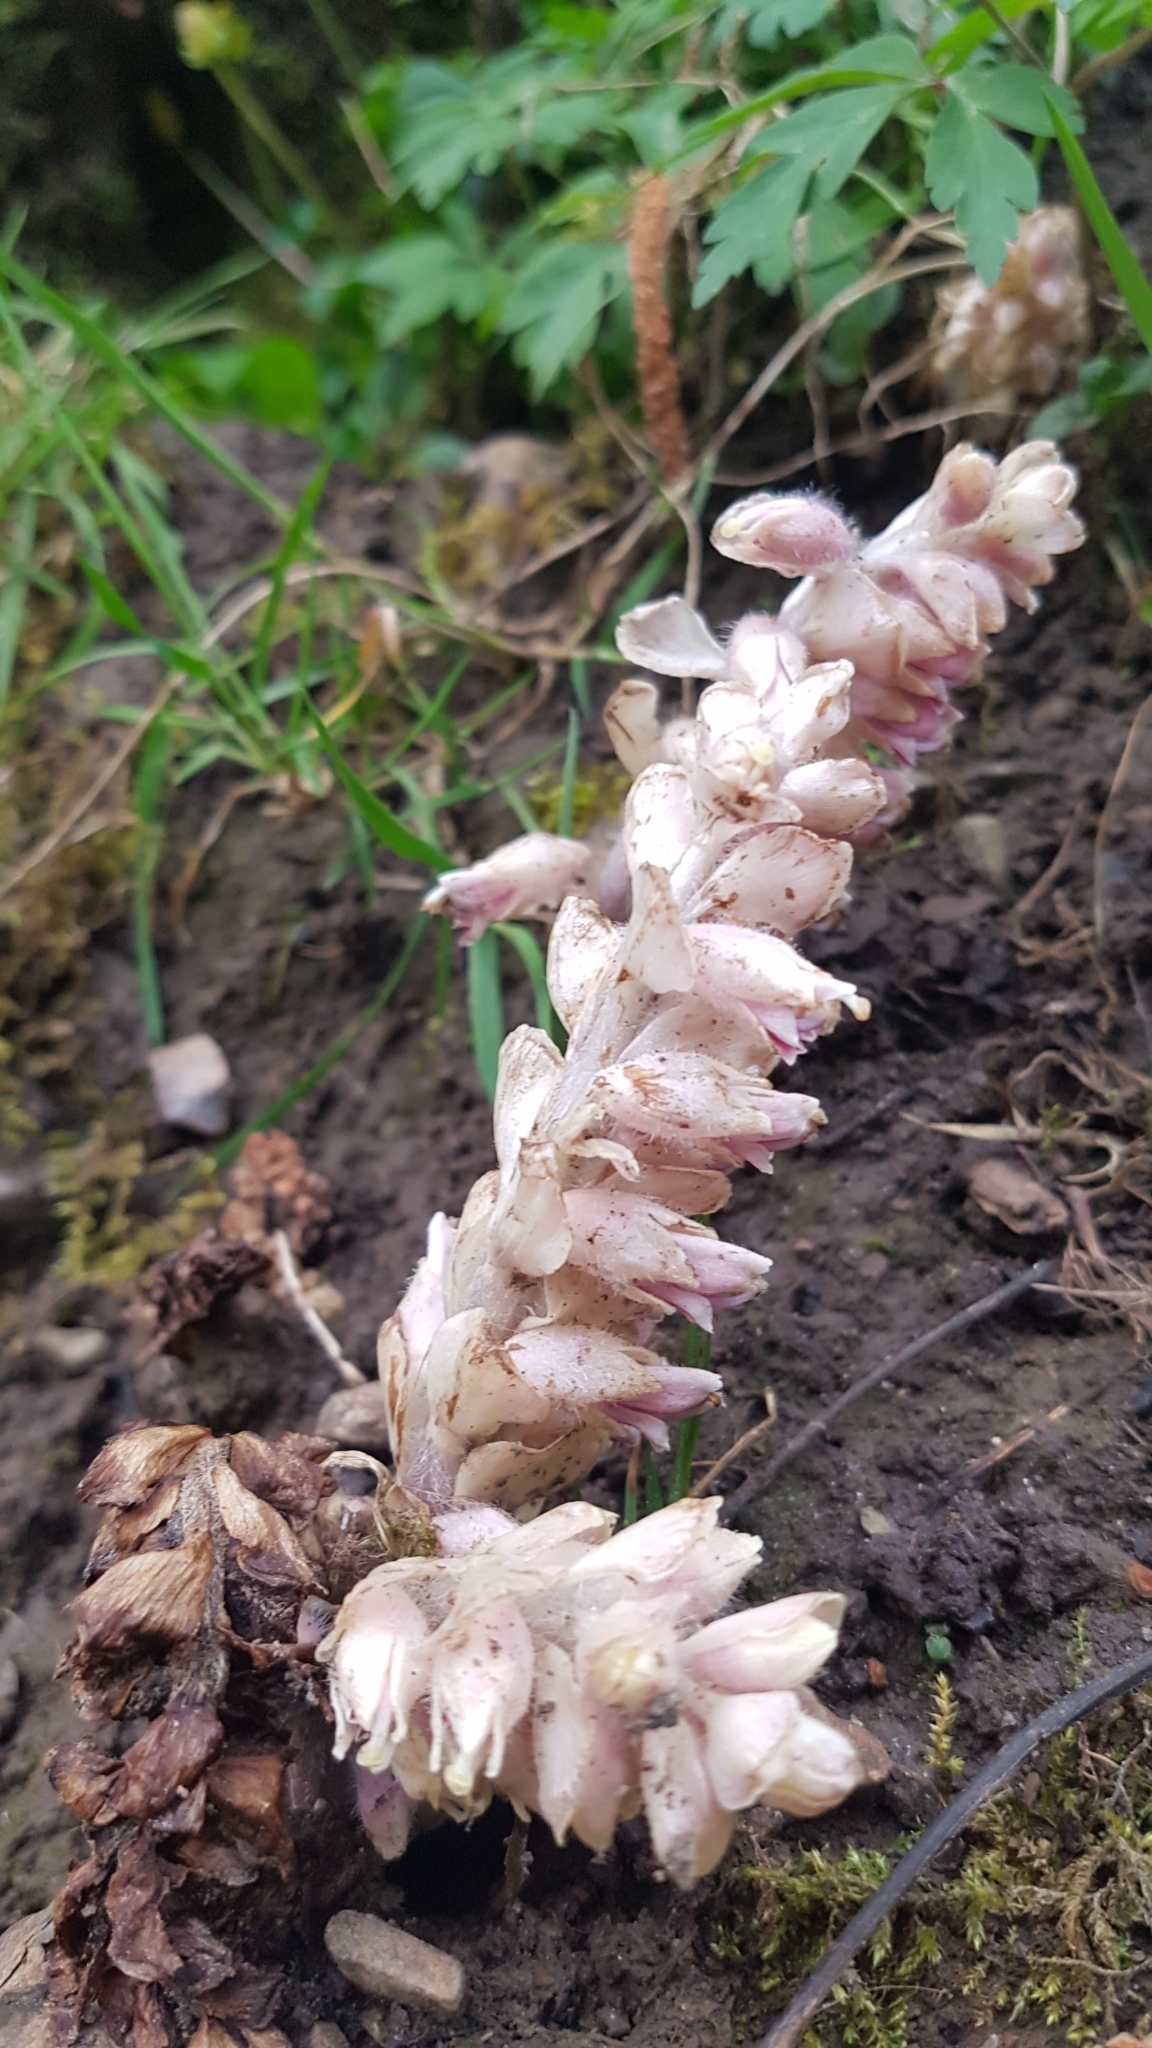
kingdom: Plantae
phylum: Tracheophyta
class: Magnoliopsida
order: Lamiales
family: Orobanchaceae
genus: Lathraea
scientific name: Lathraea squamaria
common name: Toothwort
